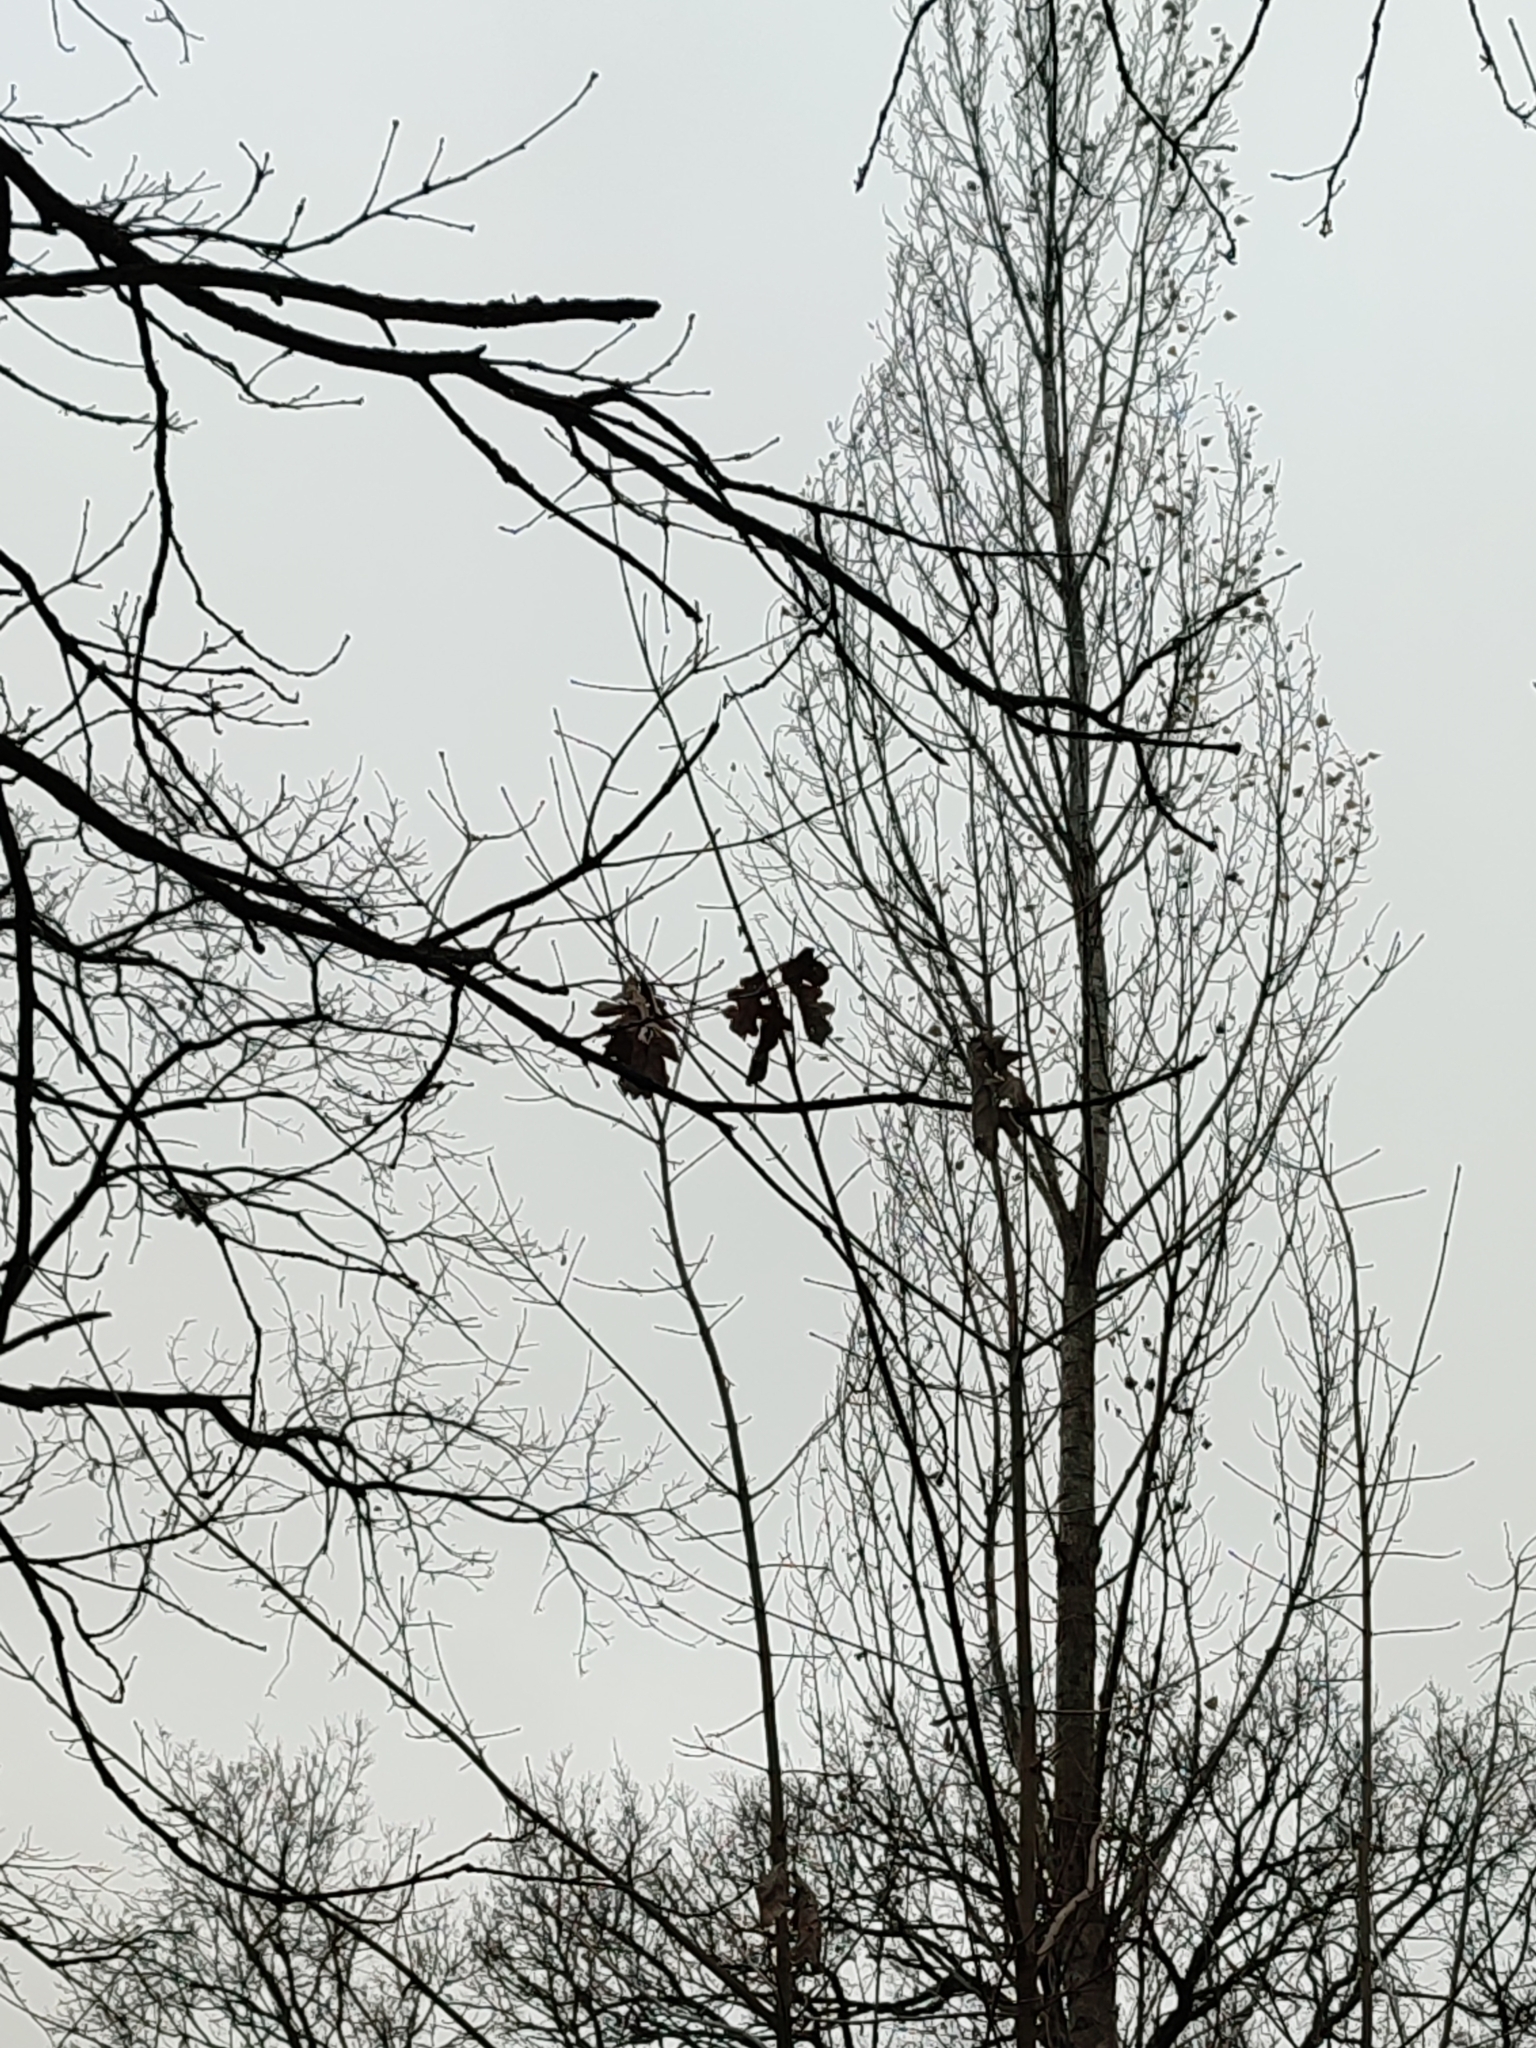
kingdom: Plantae
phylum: Tracheophyta
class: Magnoliopsida
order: Fagales
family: Fagaceae
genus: Quercus
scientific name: Quercus robur
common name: Pedunculate oak
